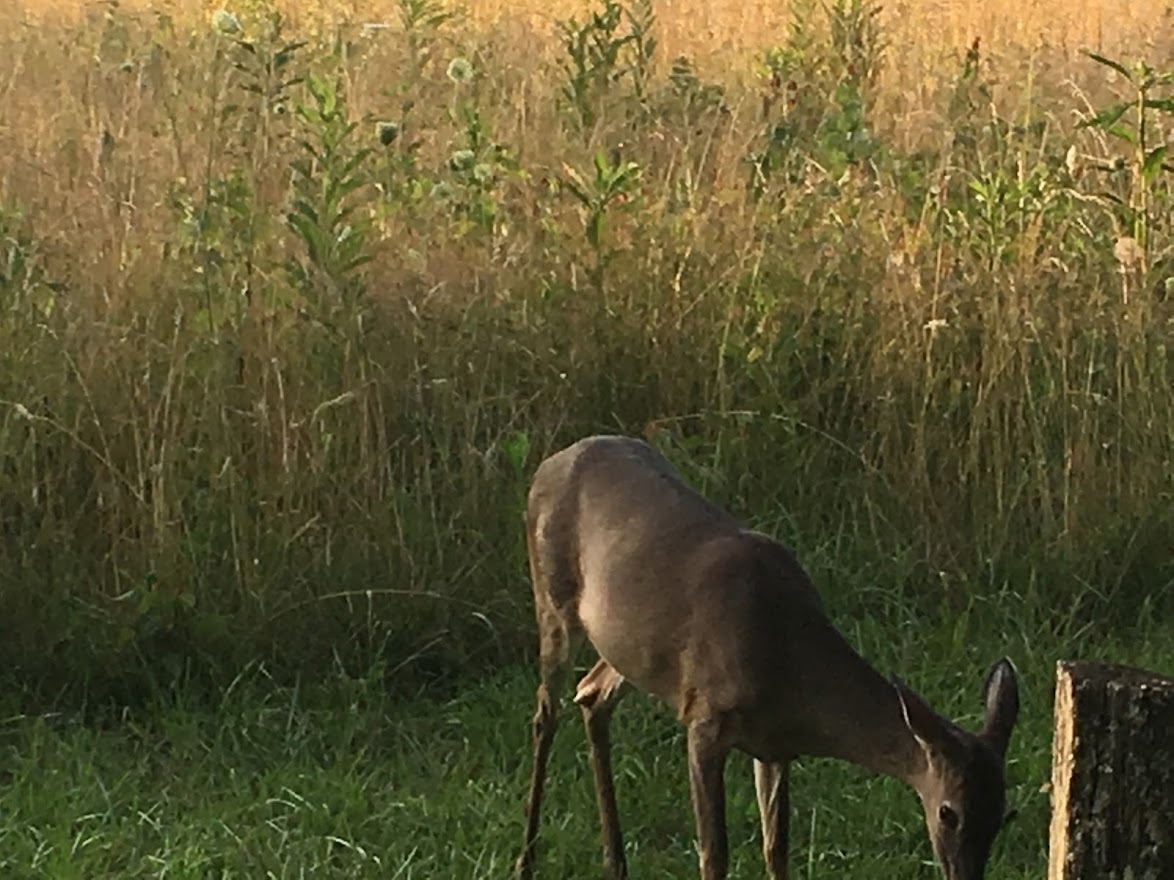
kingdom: Animalia
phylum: Chordata
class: Mammalia
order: Artiodactyla
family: Cervidae
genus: Odocoileus
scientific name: Odocoileus virginianus
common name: White-tailed deer
